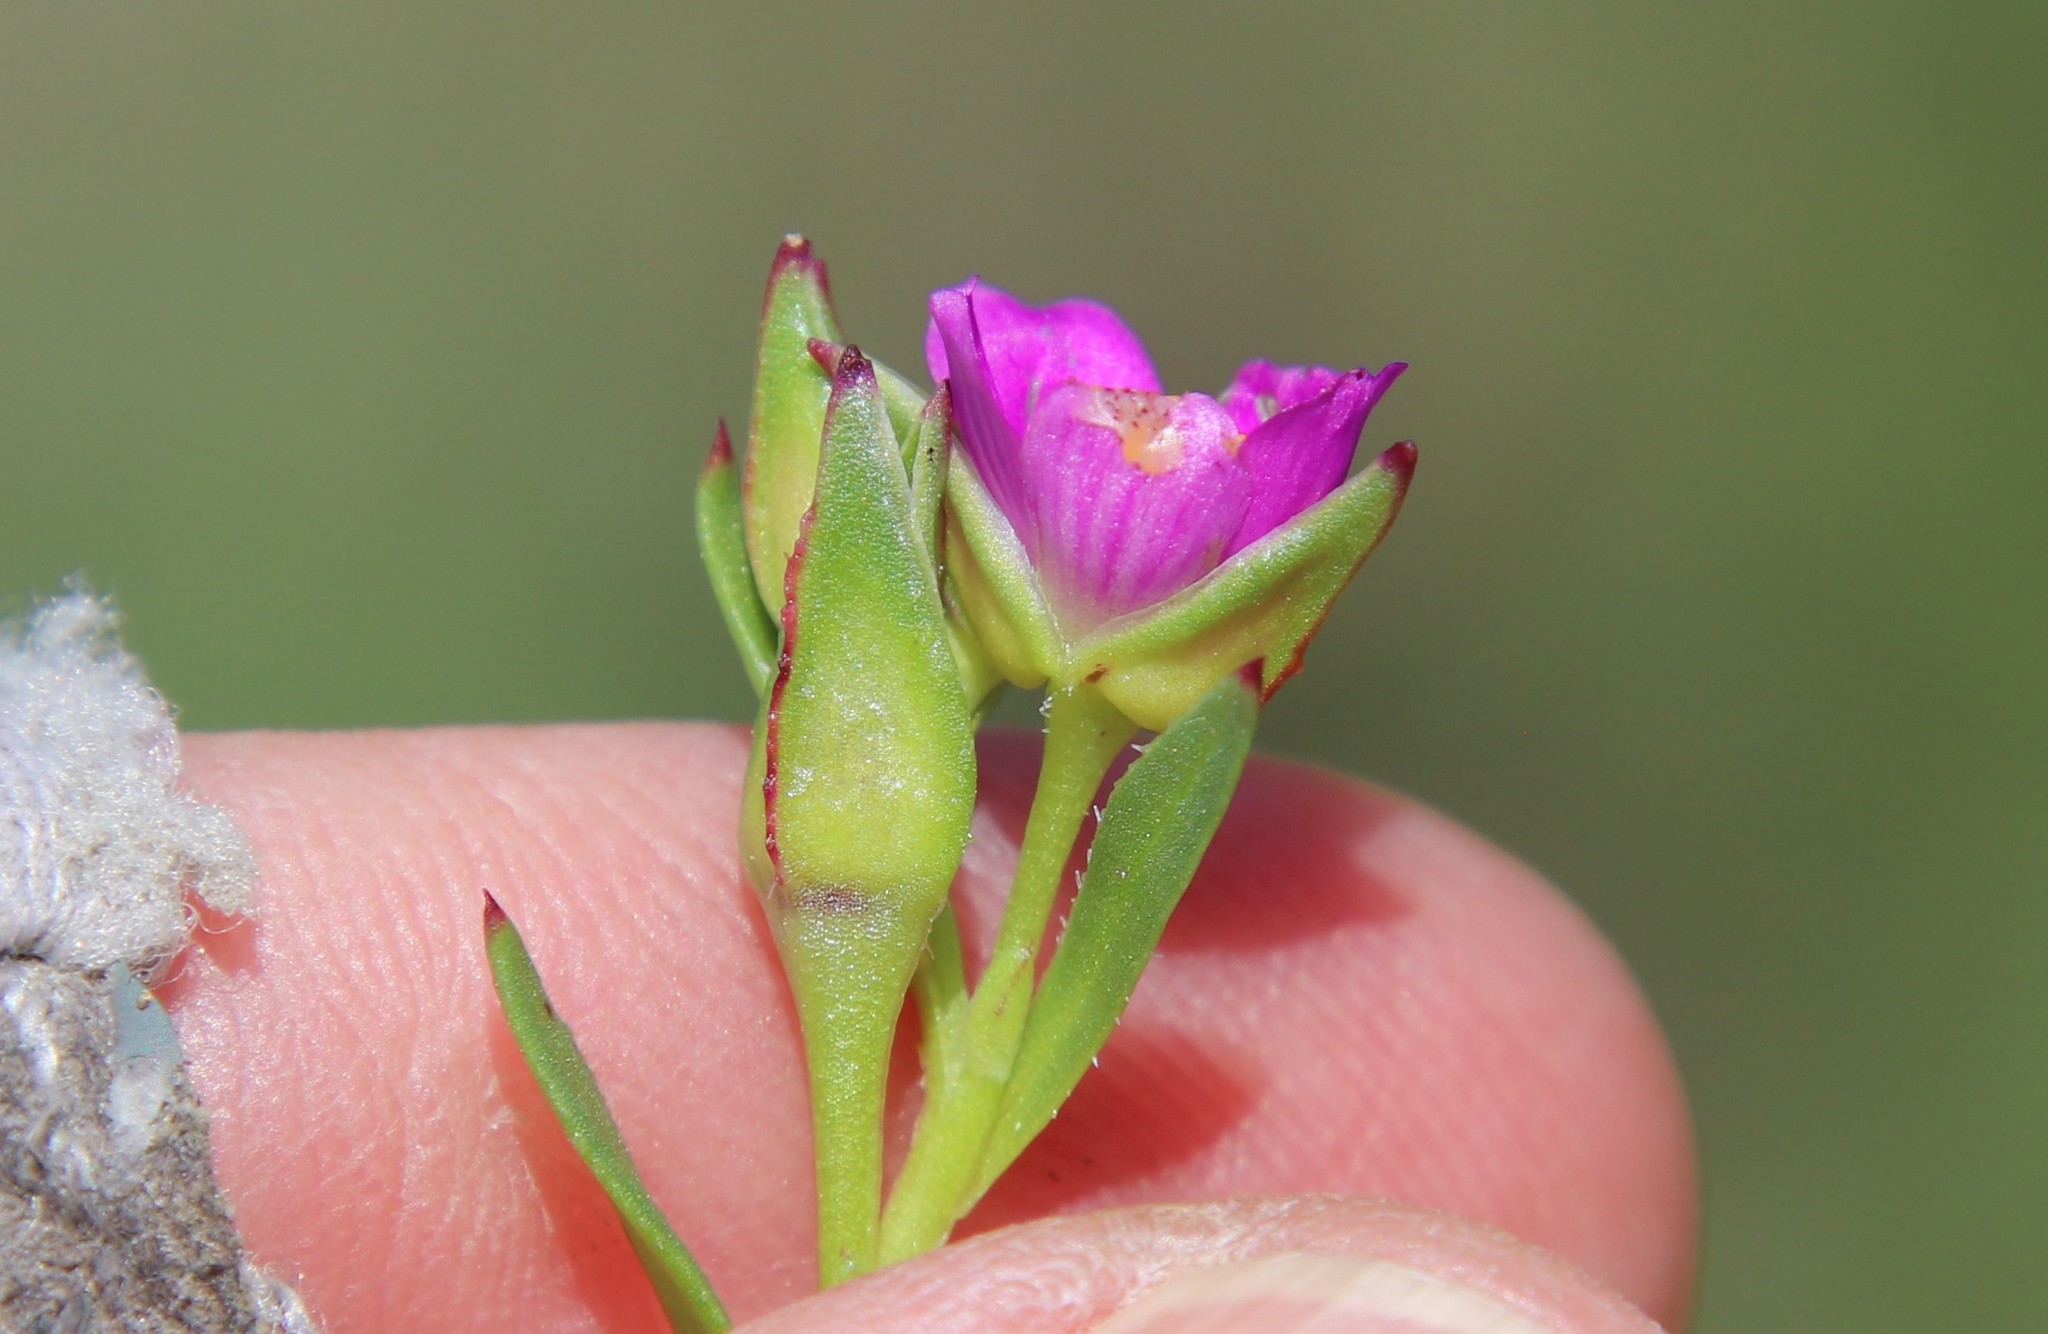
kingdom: Plantae
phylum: Tracheophyta
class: Magnoliopsida
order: Caryophyllales
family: Montiaceae
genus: Calandrinia
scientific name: Calandrinia menziesii
